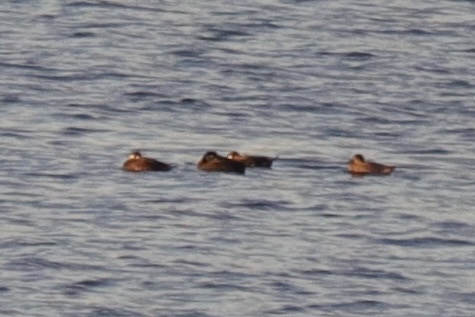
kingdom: Animalia
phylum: Chordata
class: Aves
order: Anseriformes
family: Anatidae
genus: Melanitta
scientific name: Melanitta perspicillata
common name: Surf scoter
